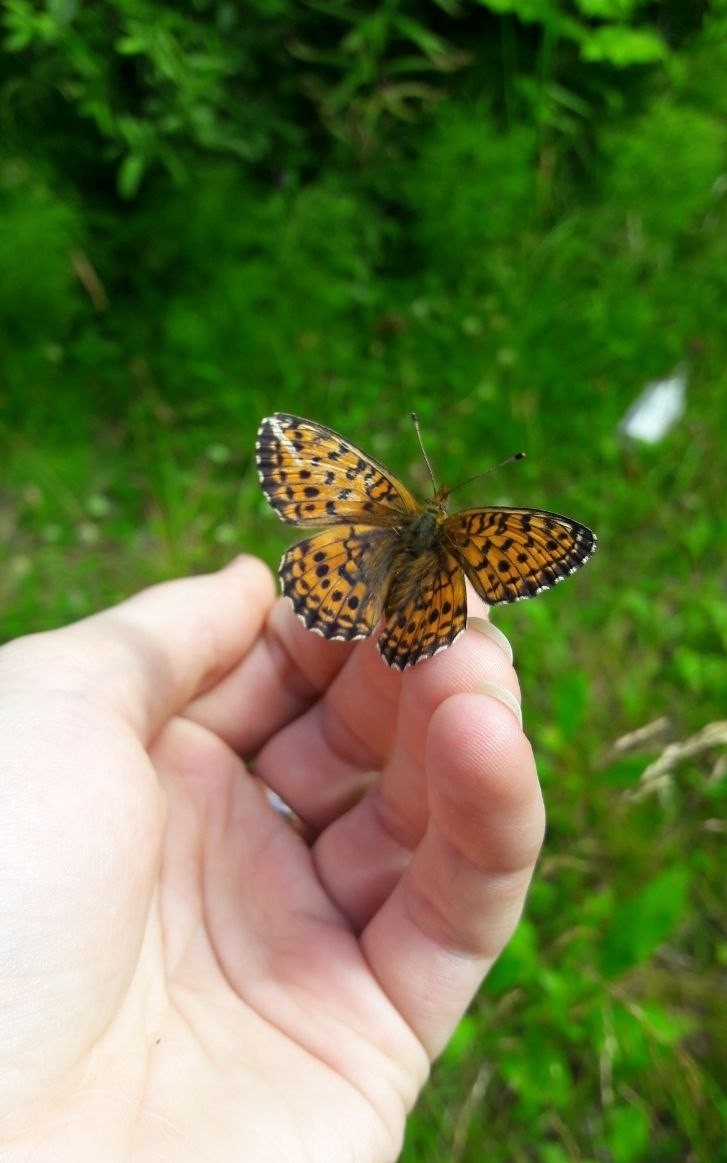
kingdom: Animalia
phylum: Arthropoda
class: Insecta
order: Lepidoptera
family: Nymphalidae
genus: Brenthis
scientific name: Brenthis ino
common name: Lesser marbled fritillary
